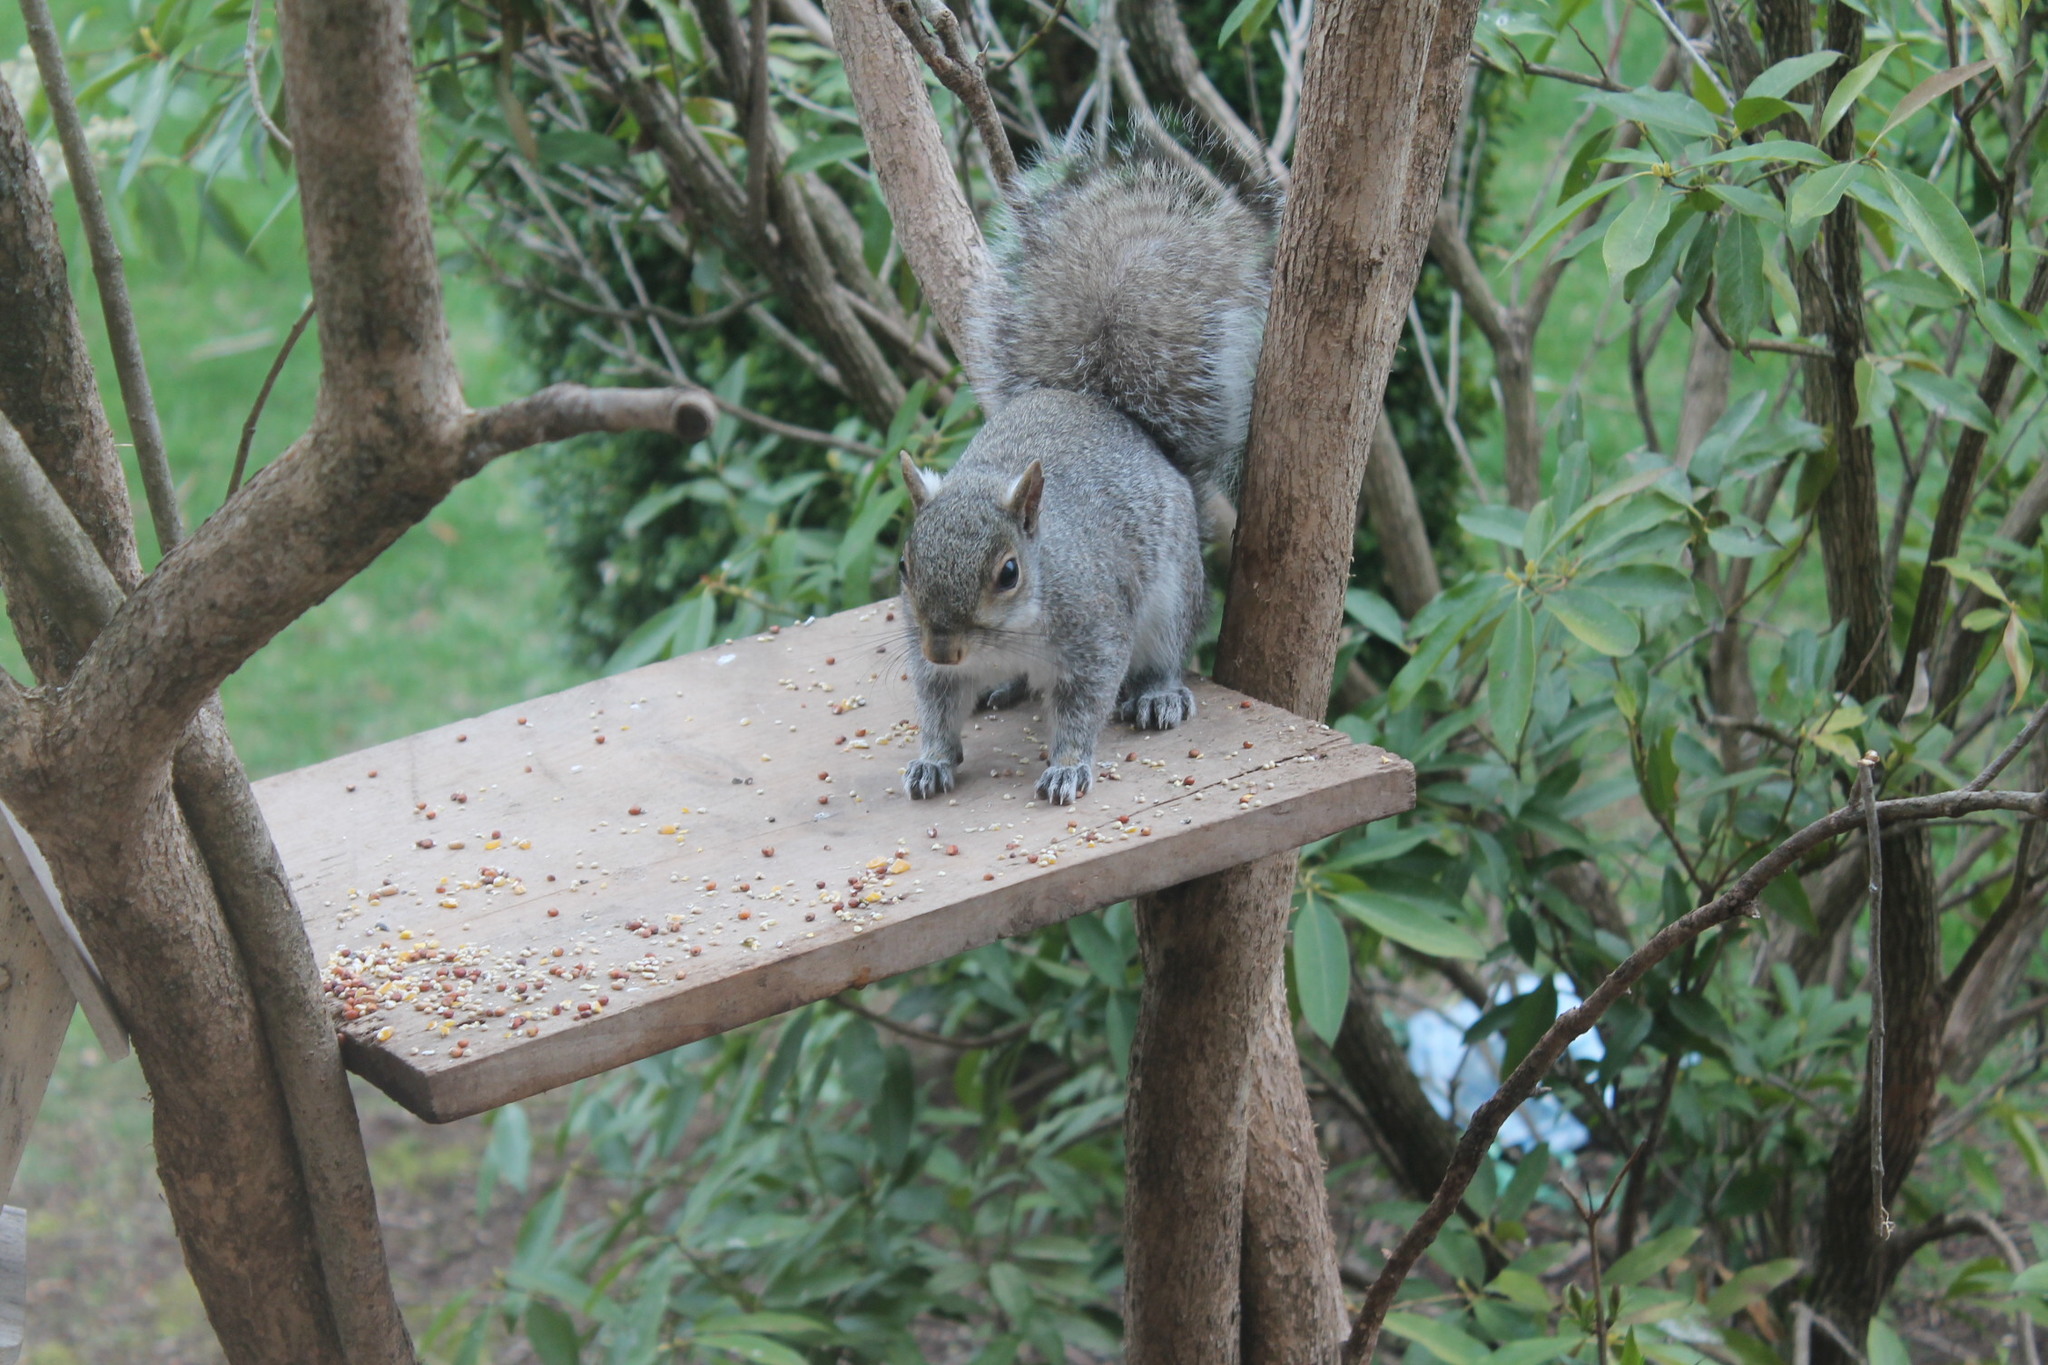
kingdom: Animalia
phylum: Chordata
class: Mammalia
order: Rodentia
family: Sciuridae
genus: Sciurus
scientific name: Sciurus carolinensis
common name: Eastern gray squirrel
